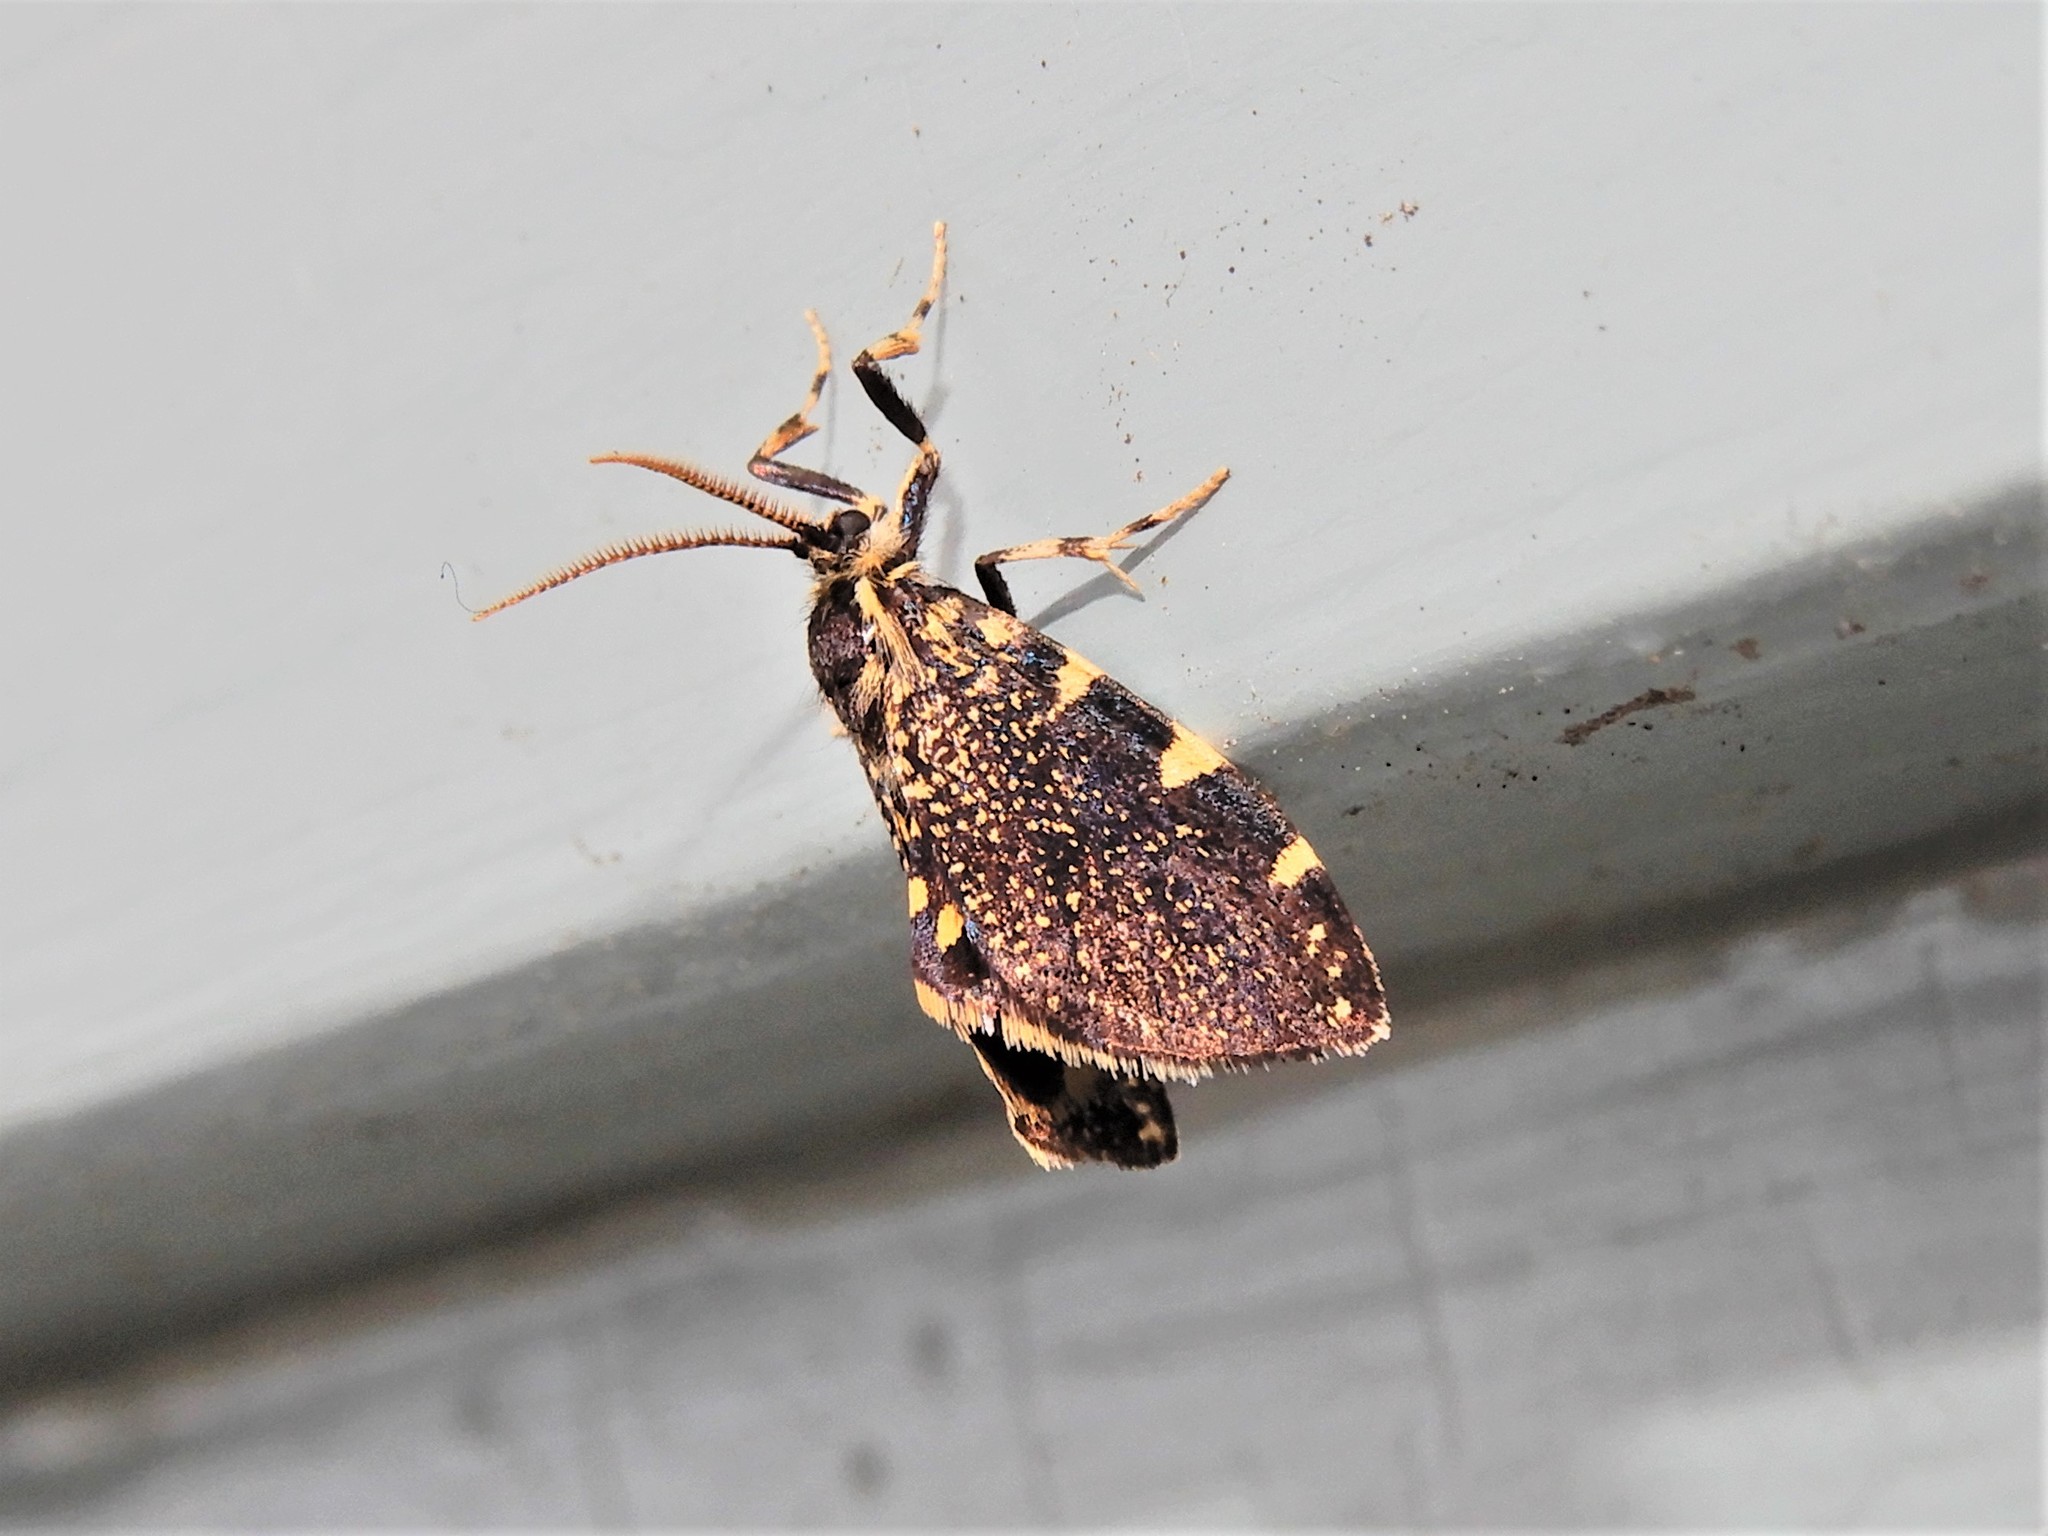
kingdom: Animalia
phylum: Arthropoda
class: Insecta
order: Lepidoptera
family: Psychidae
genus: Cebysa
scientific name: Cebysa leucotelus
